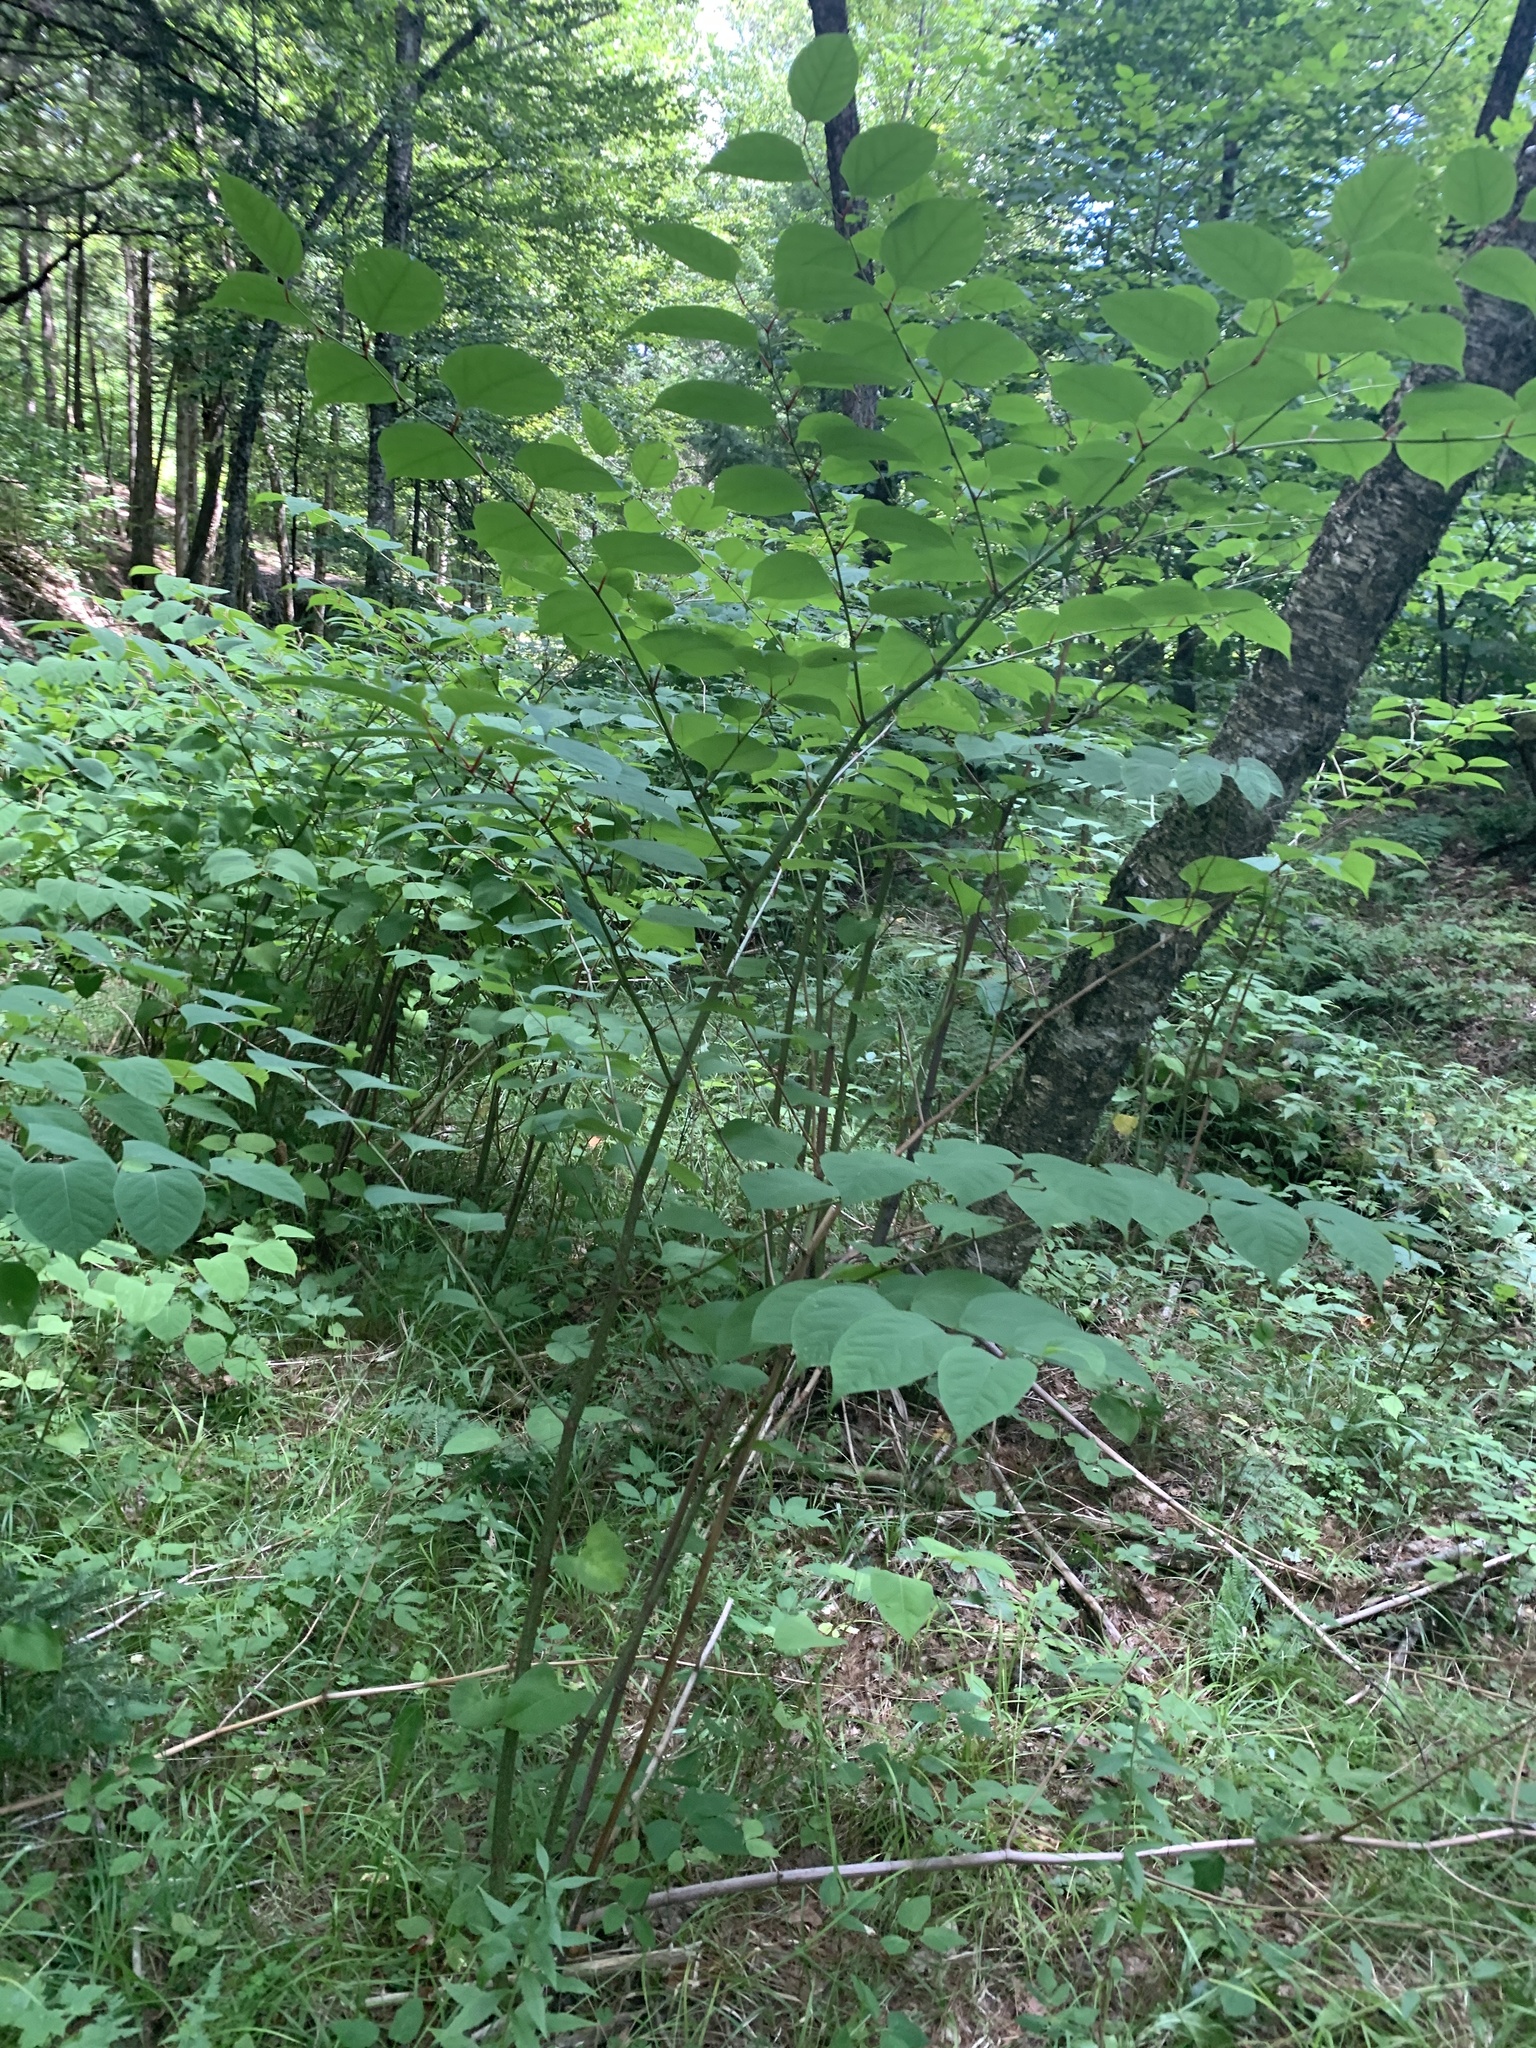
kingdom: Plantae
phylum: Tracheophyta
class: Magnoliopsida
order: Caryophyllales
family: Polygonaceae
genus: Reynoutria
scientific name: Reynoutria japonica
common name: Japanese knotweed
